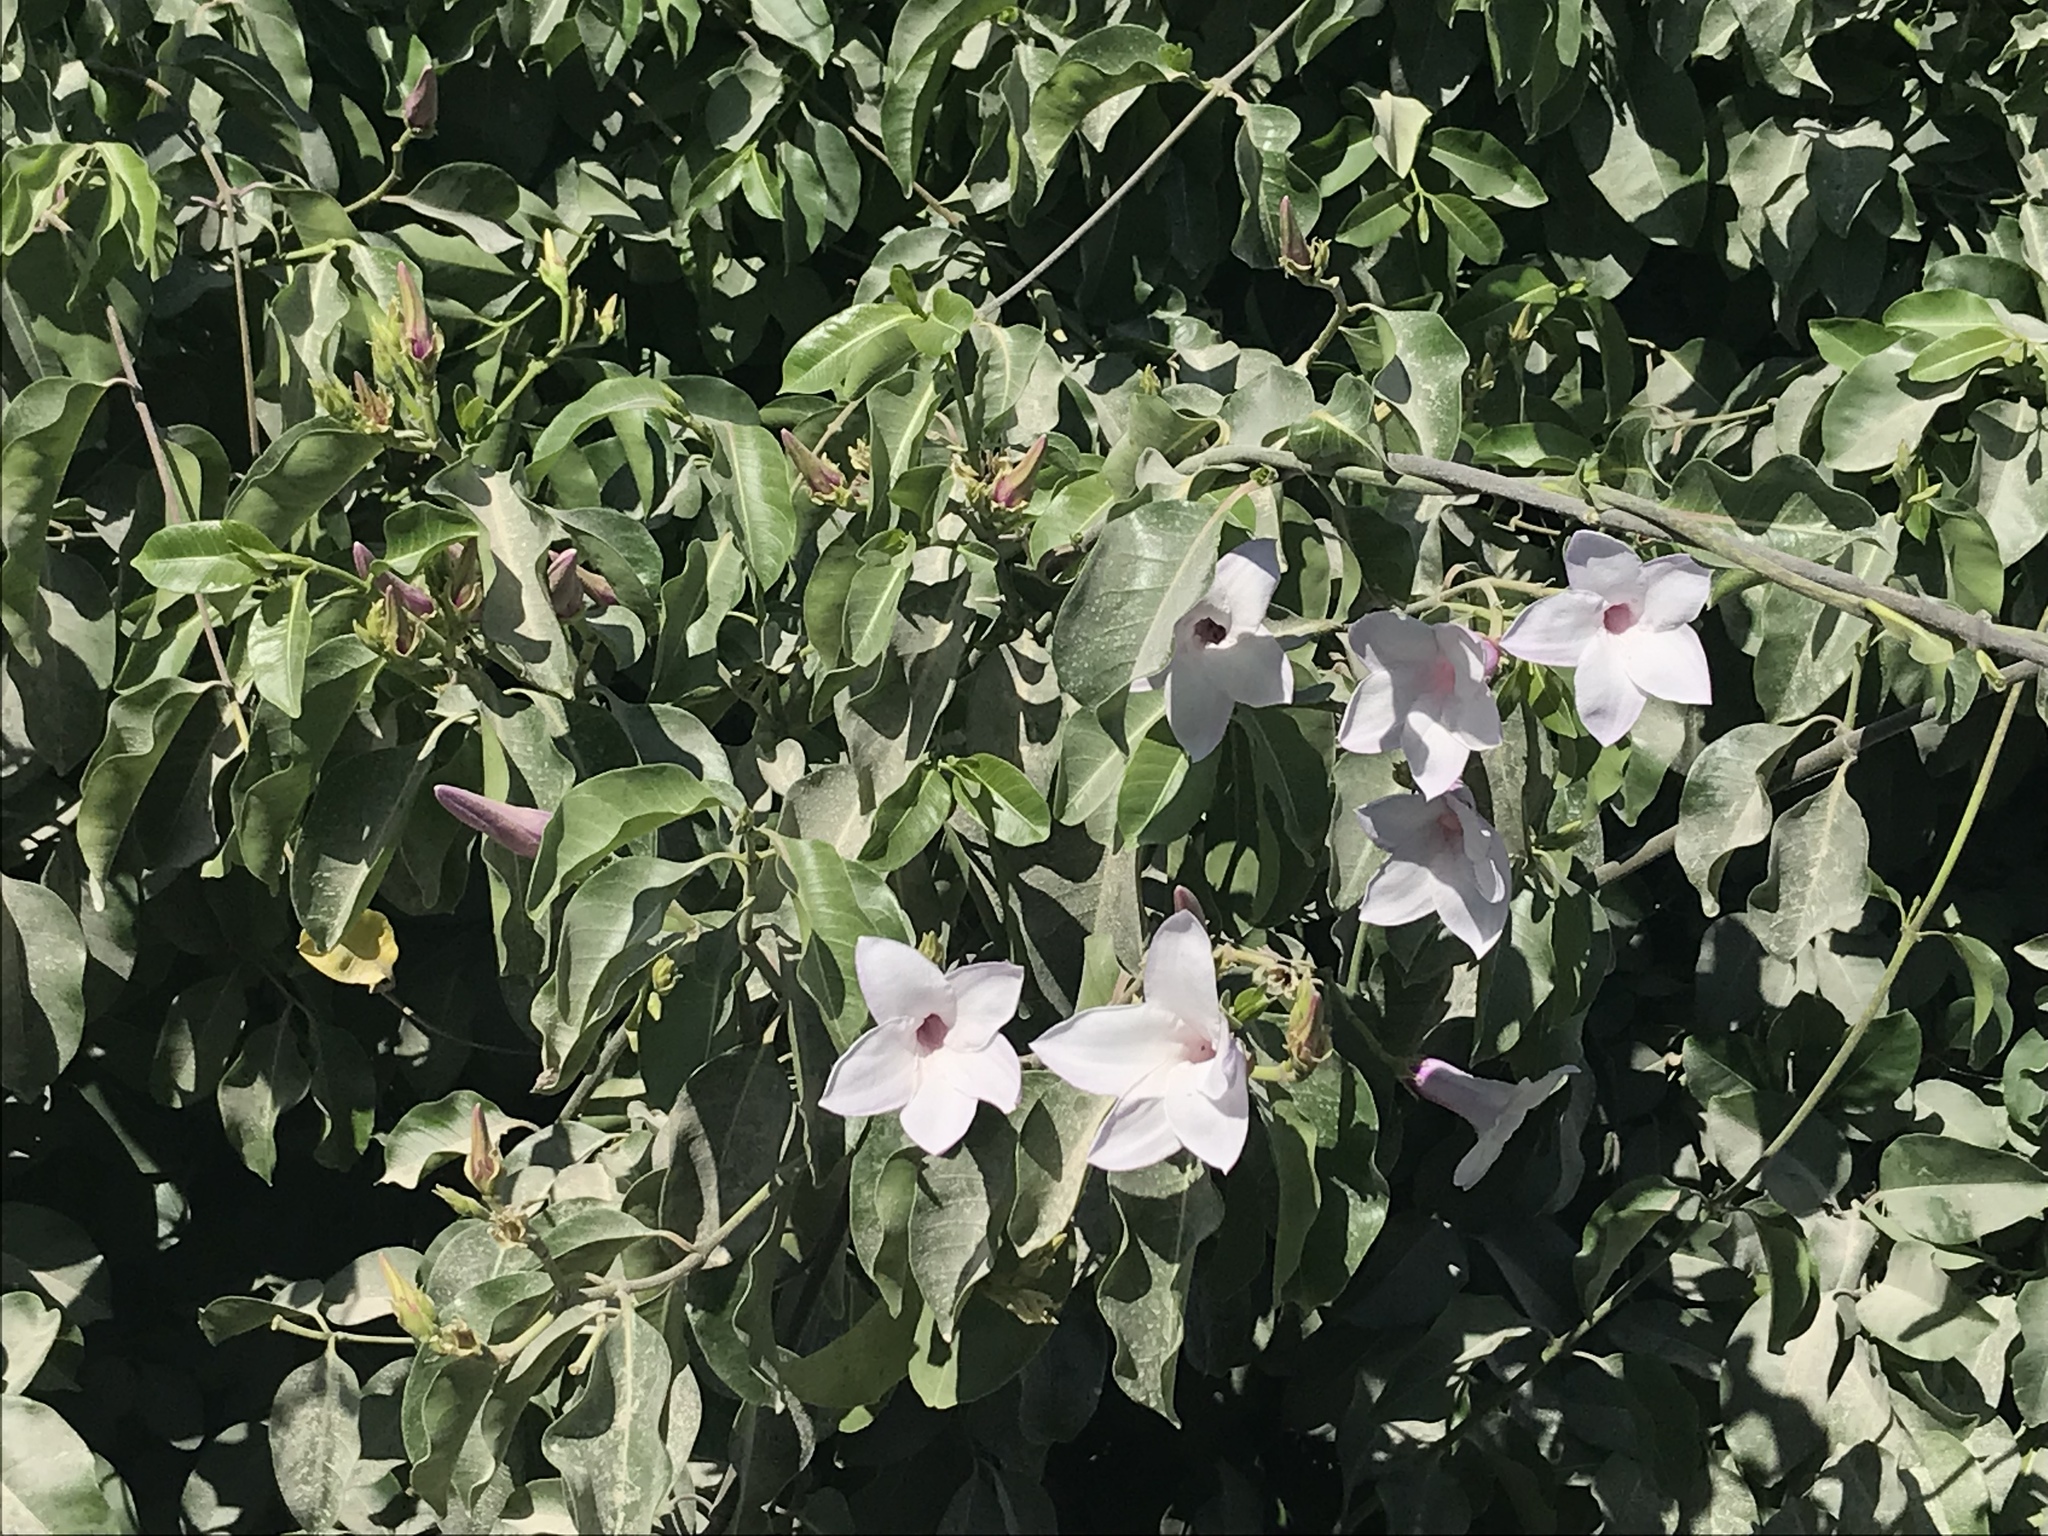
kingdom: Plantae
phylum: Tracheophyta
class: Magnoliopsida
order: Gentianales
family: Apocynaceae
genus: Cryptostegia
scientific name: Cryptostegia grandiflora
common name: Palay rubbervine
